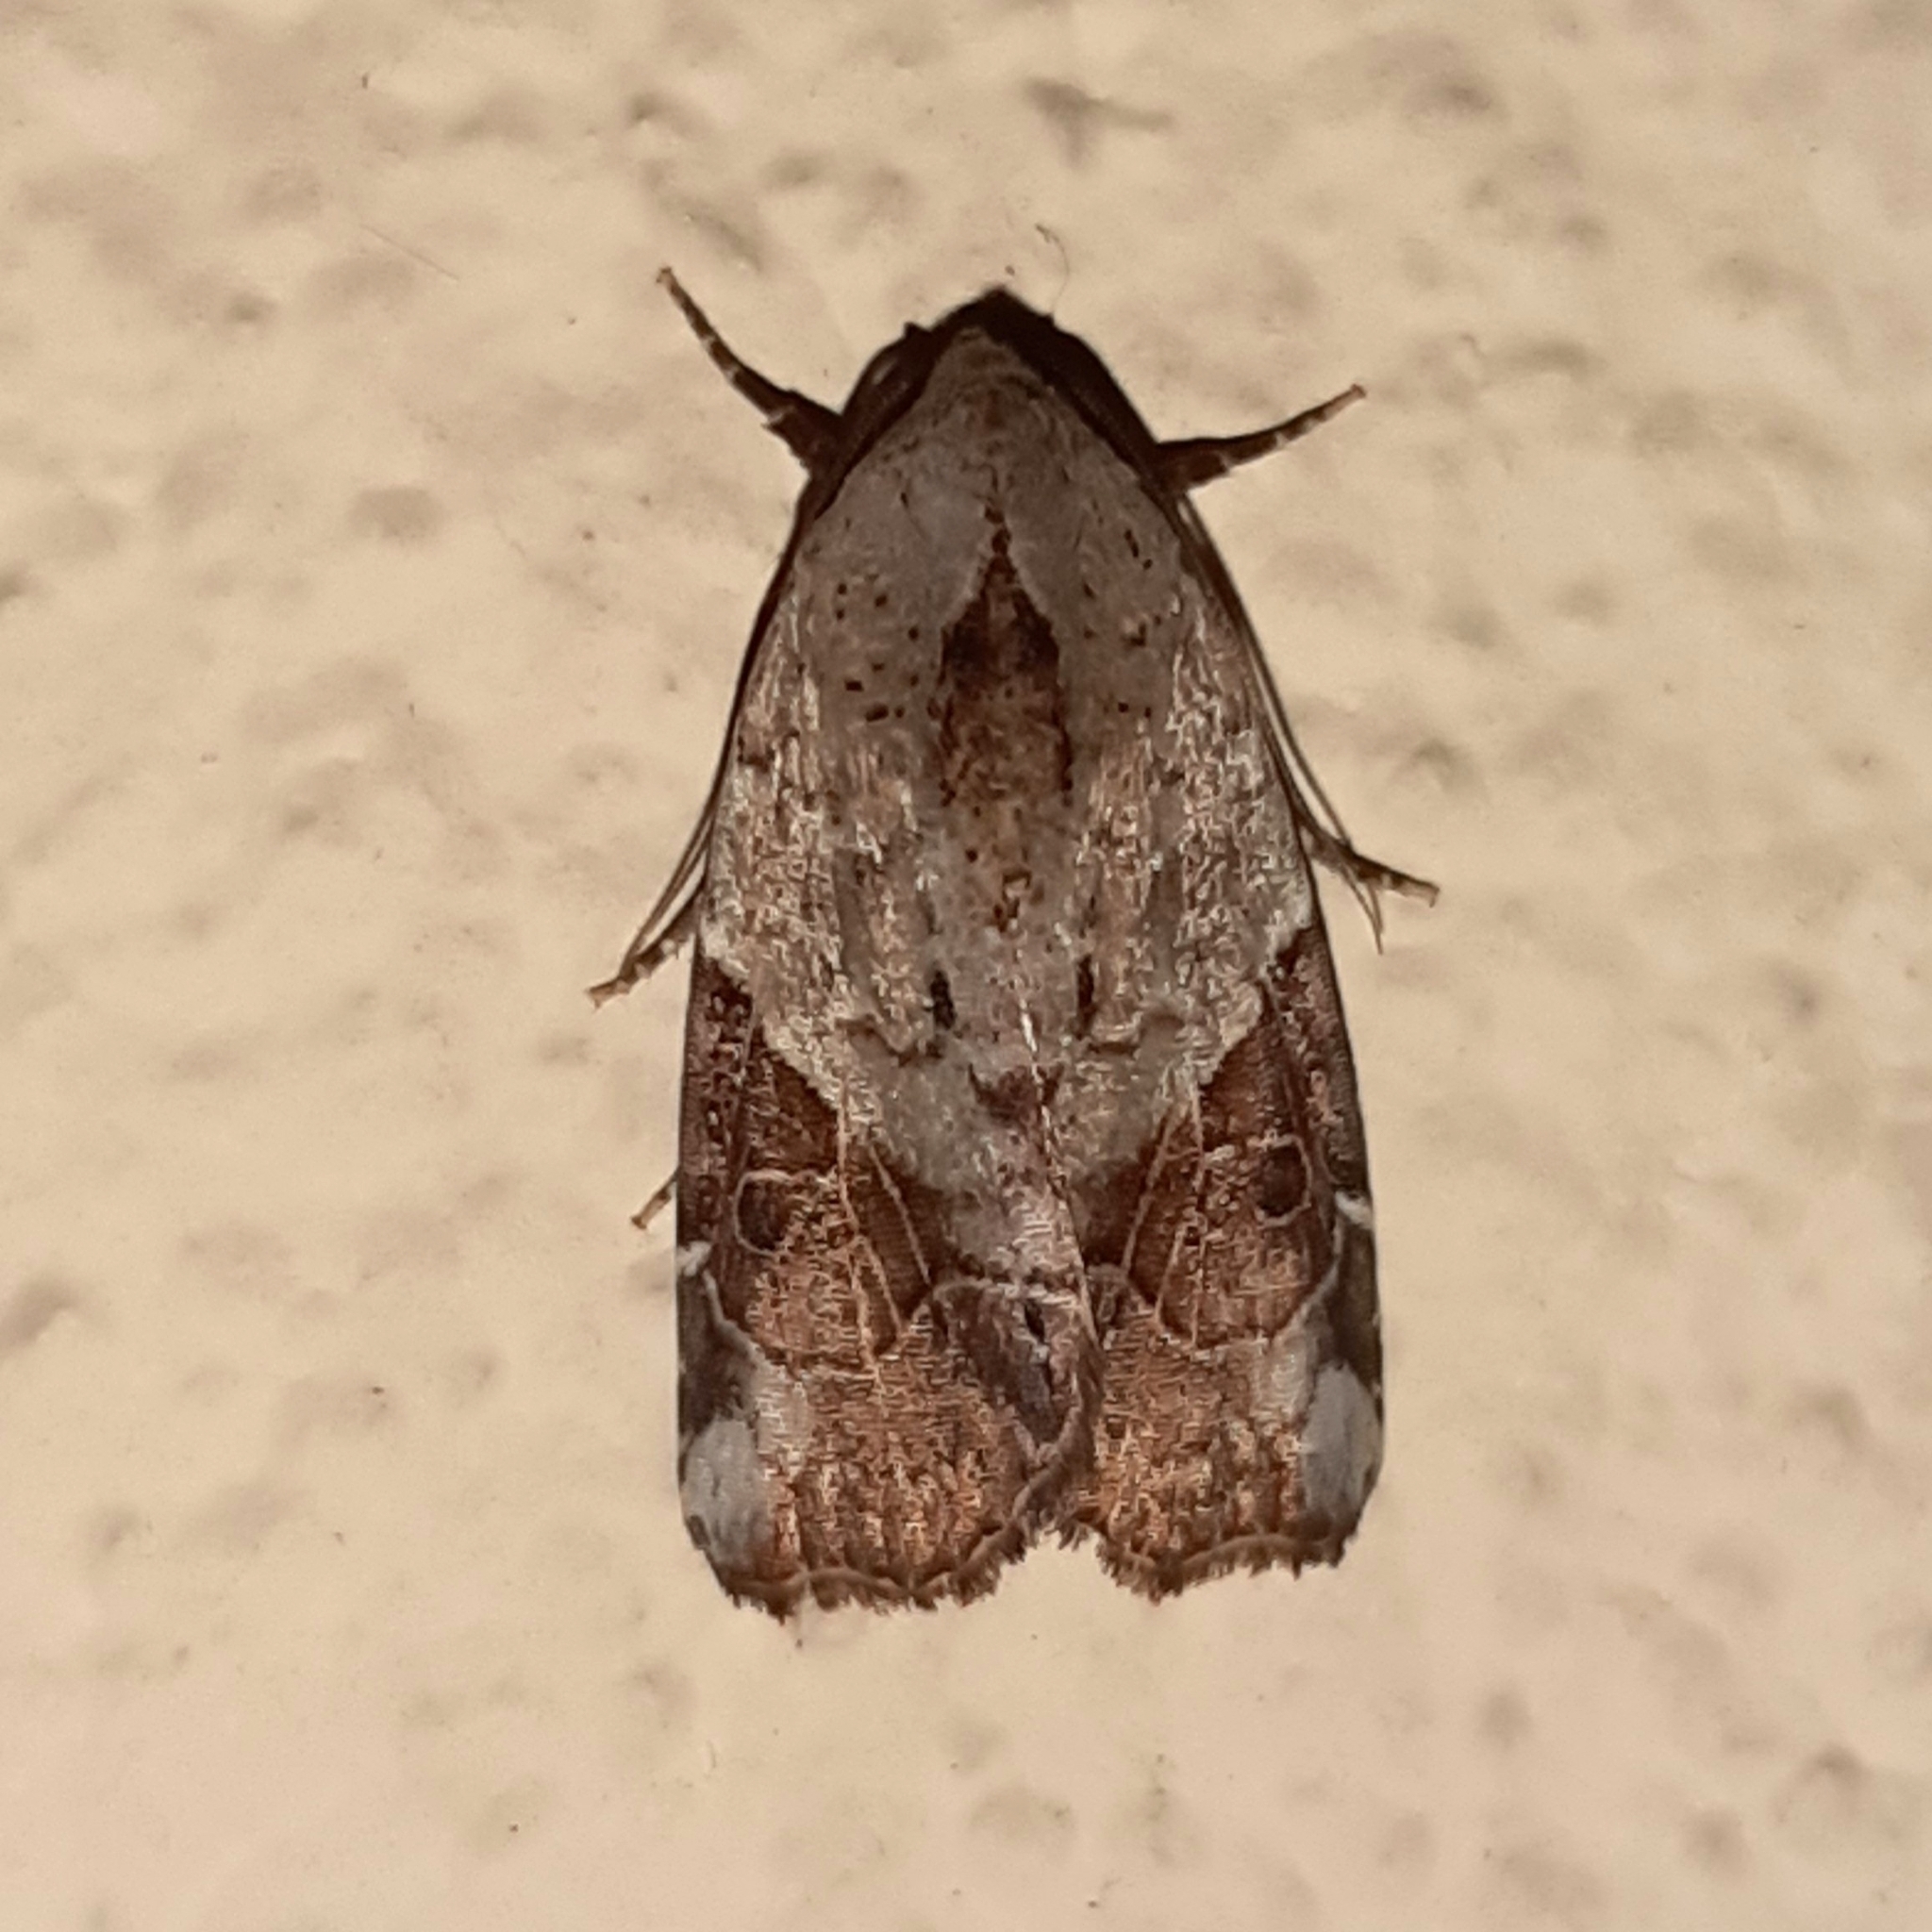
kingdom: Animalia
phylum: Arthropoda
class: Insecta
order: Lepidoptera
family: Noctuidae
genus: Gonodes
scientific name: Gonodes liquida
